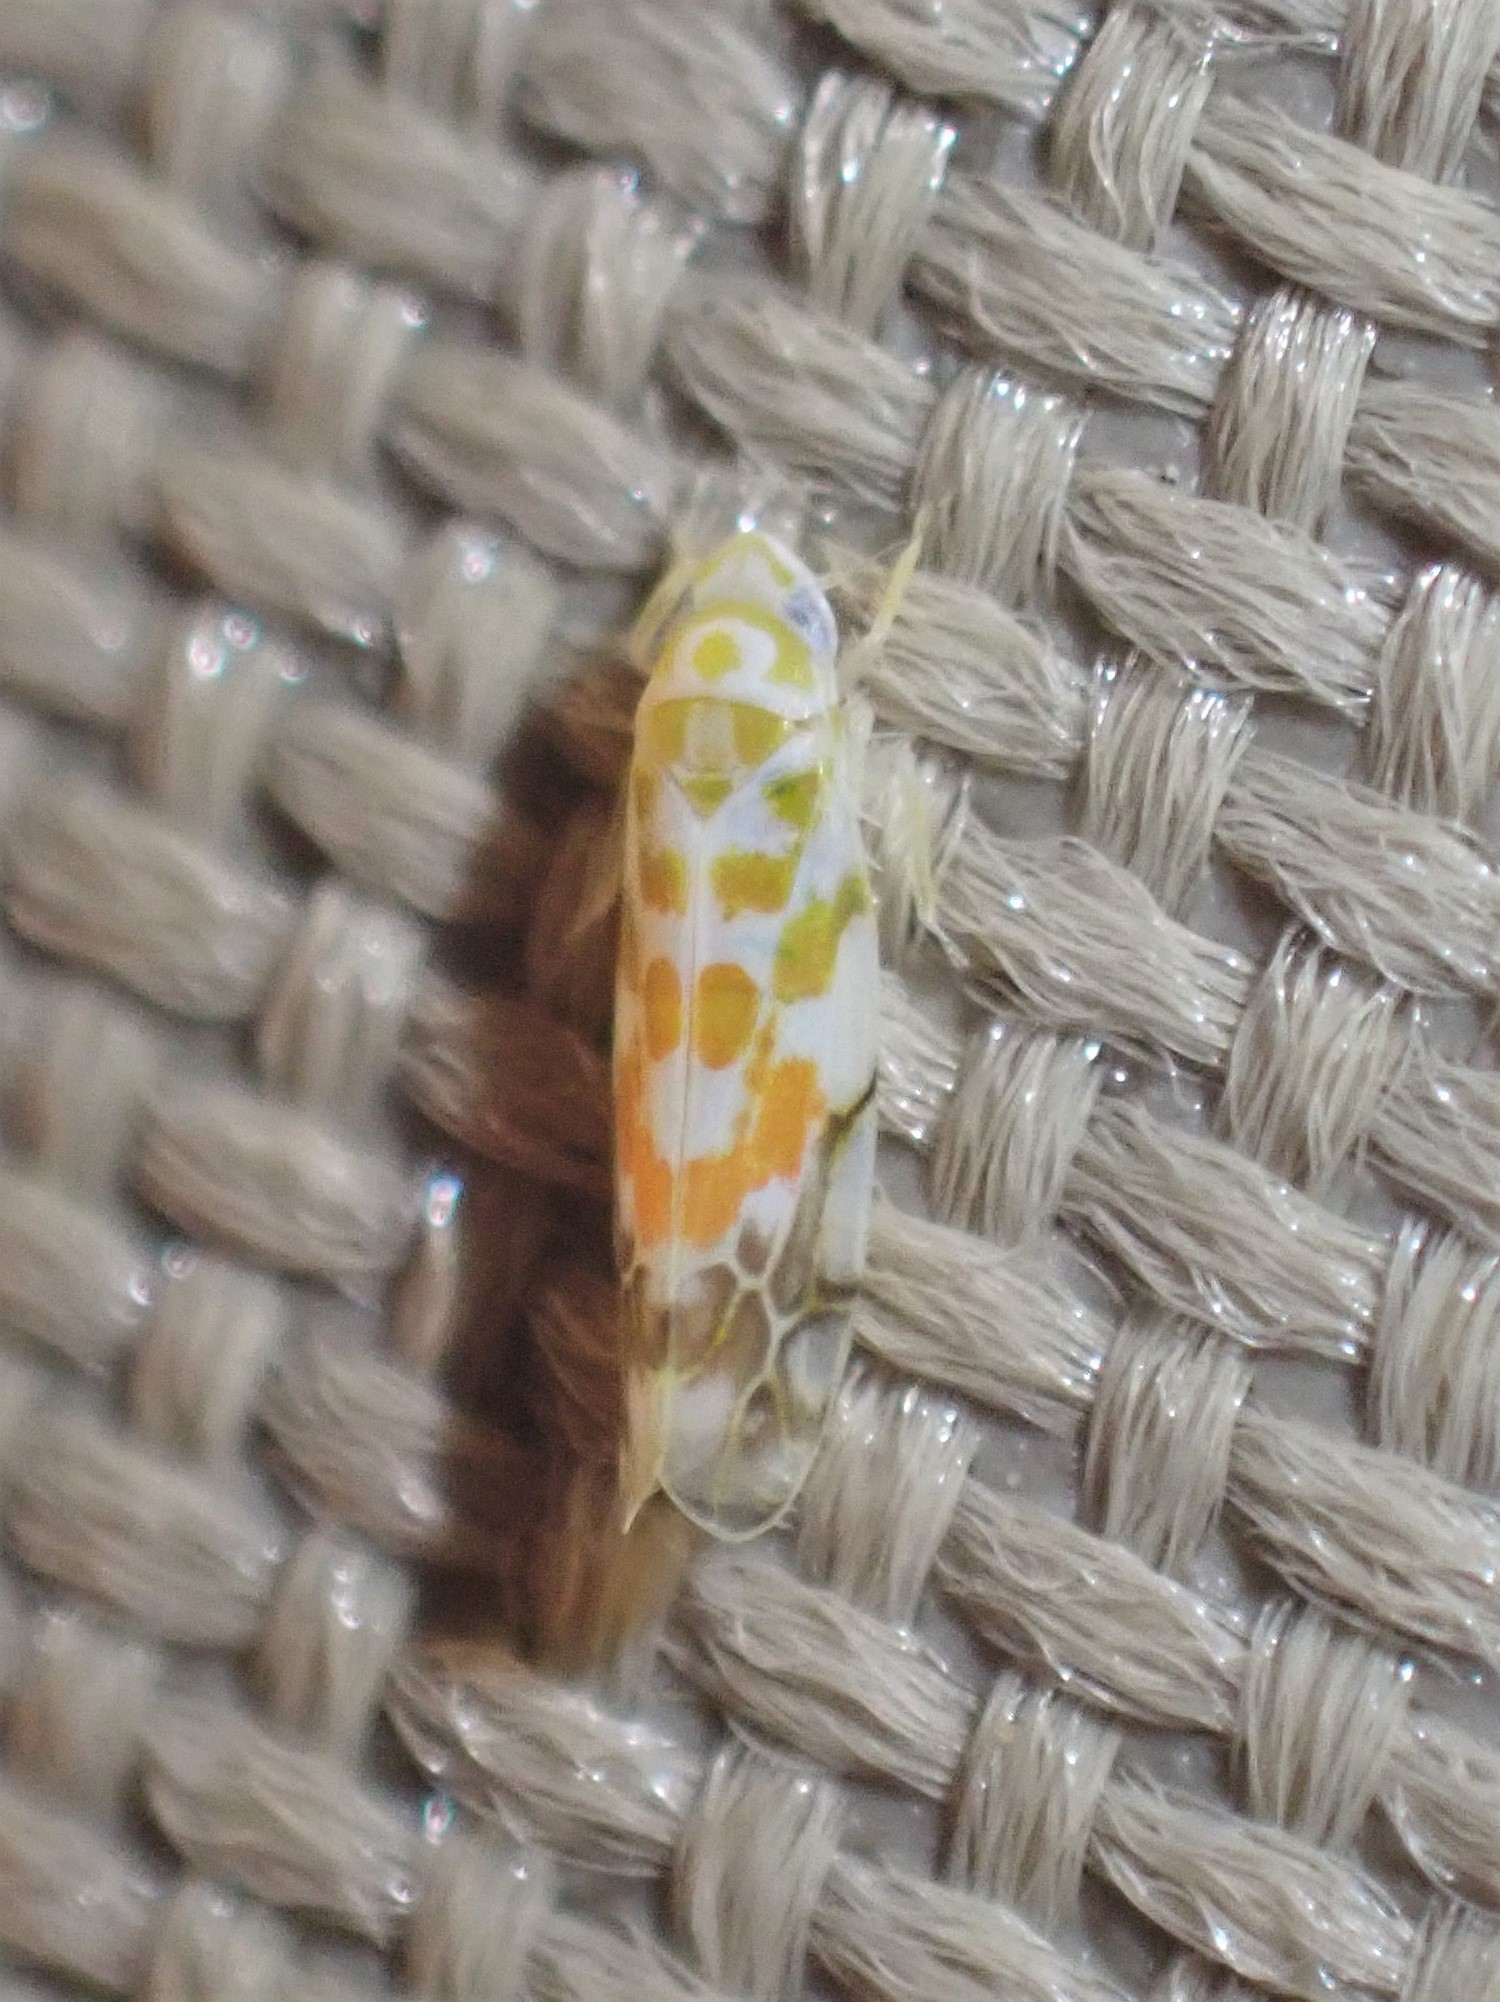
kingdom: Animalia
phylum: Arthropoda
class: Insecta
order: Hemiptera
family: Cicadellidae
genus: Typhlocyba
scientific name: Typhlocyba quercus
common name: Leafhopper
